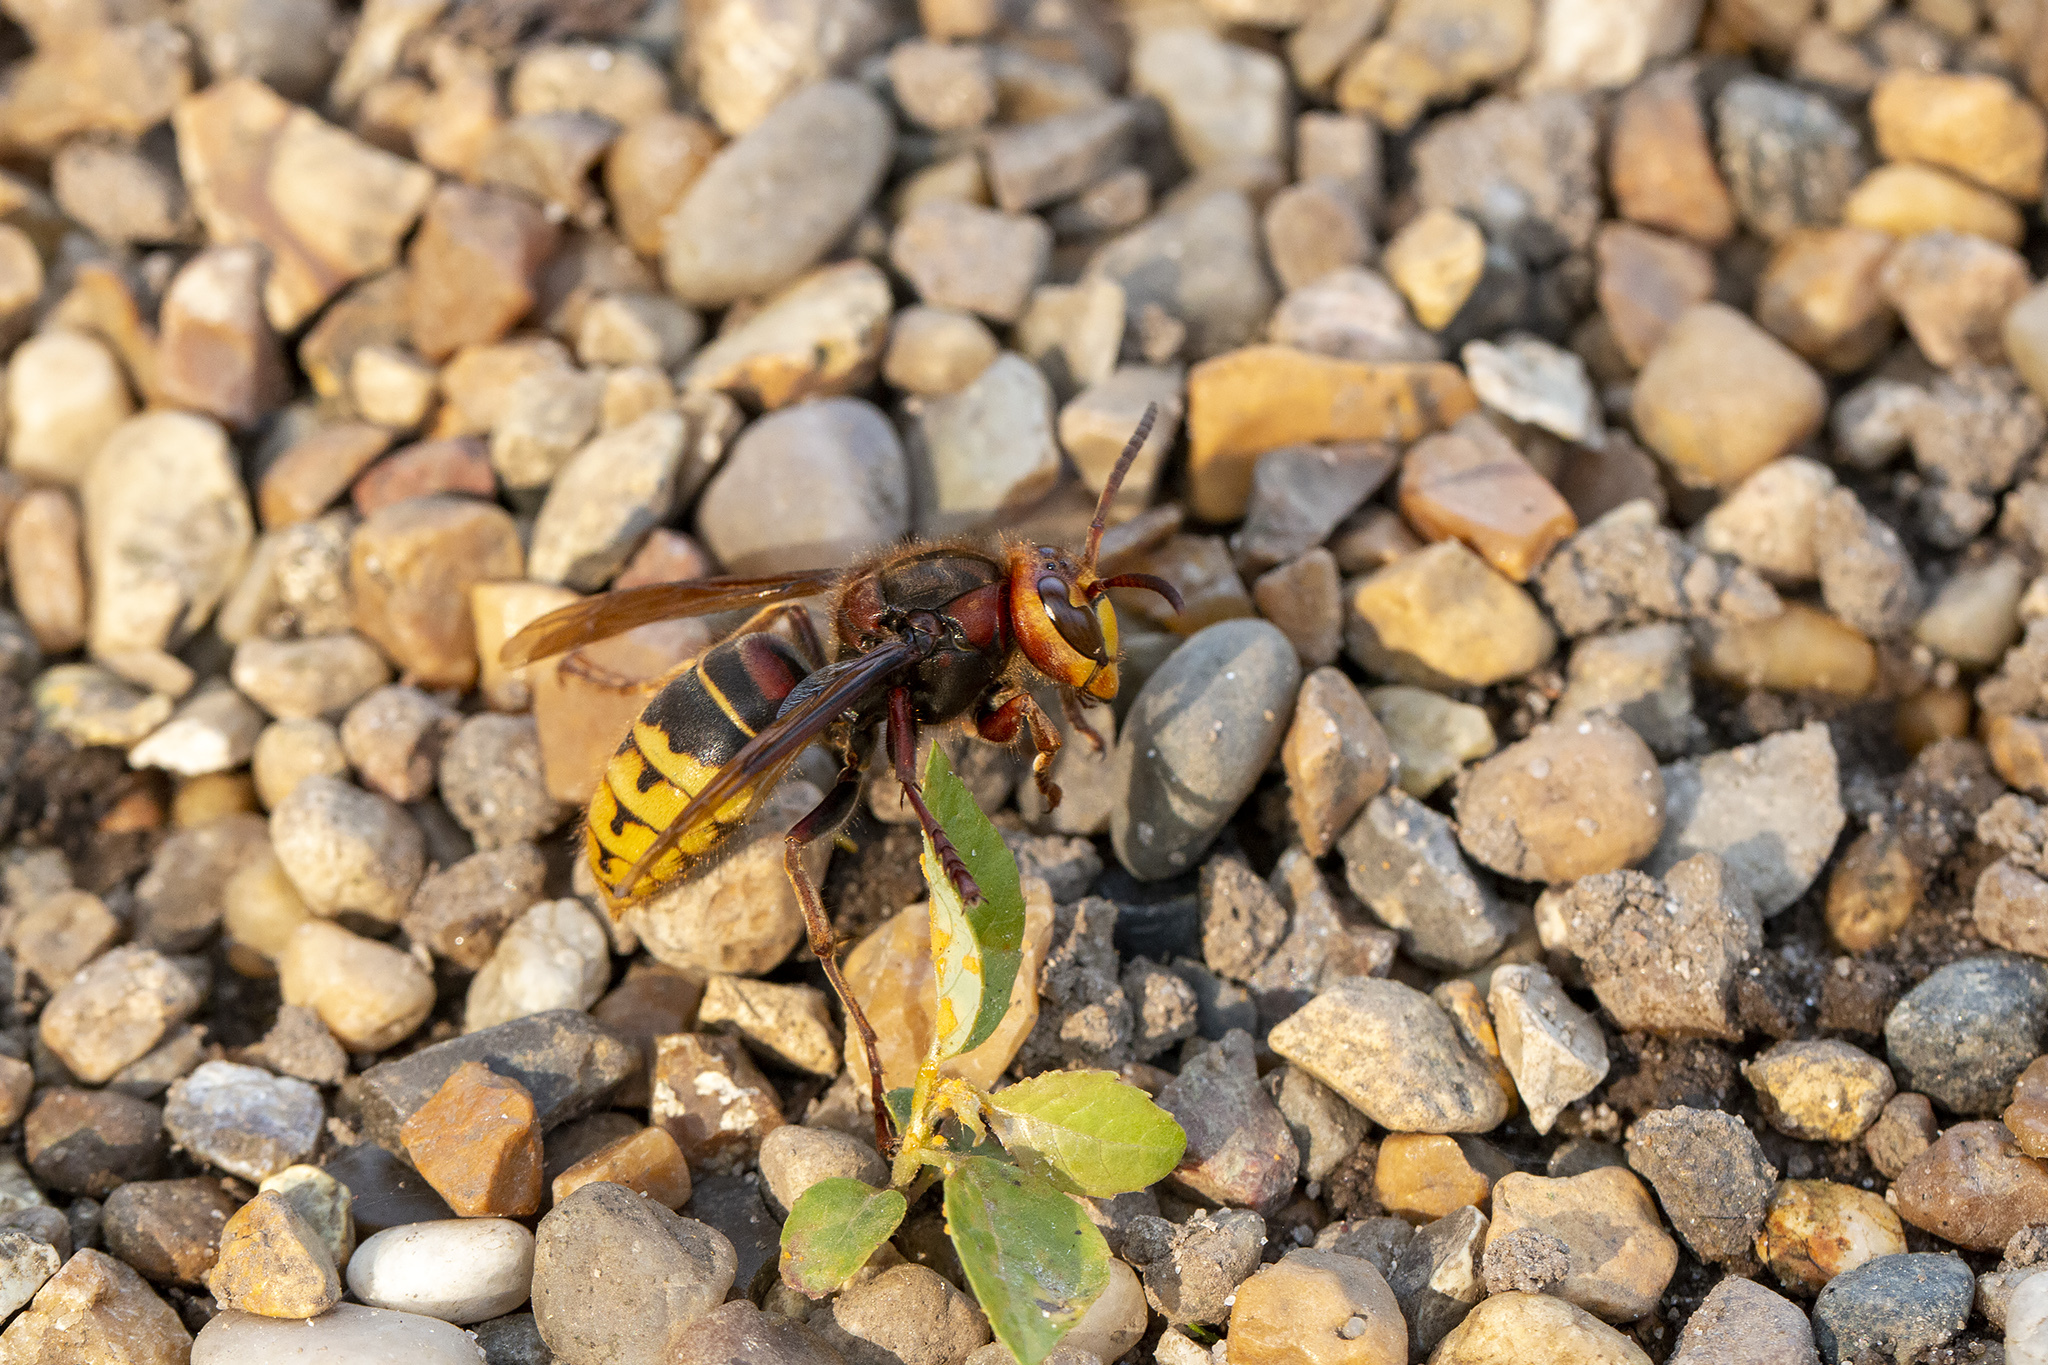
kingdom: Animalia
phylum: Arthropoda
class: Insecta
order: Hymenoptera
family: Vespidae
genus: Vespa
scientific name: Vespa crabro
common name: Hornet
